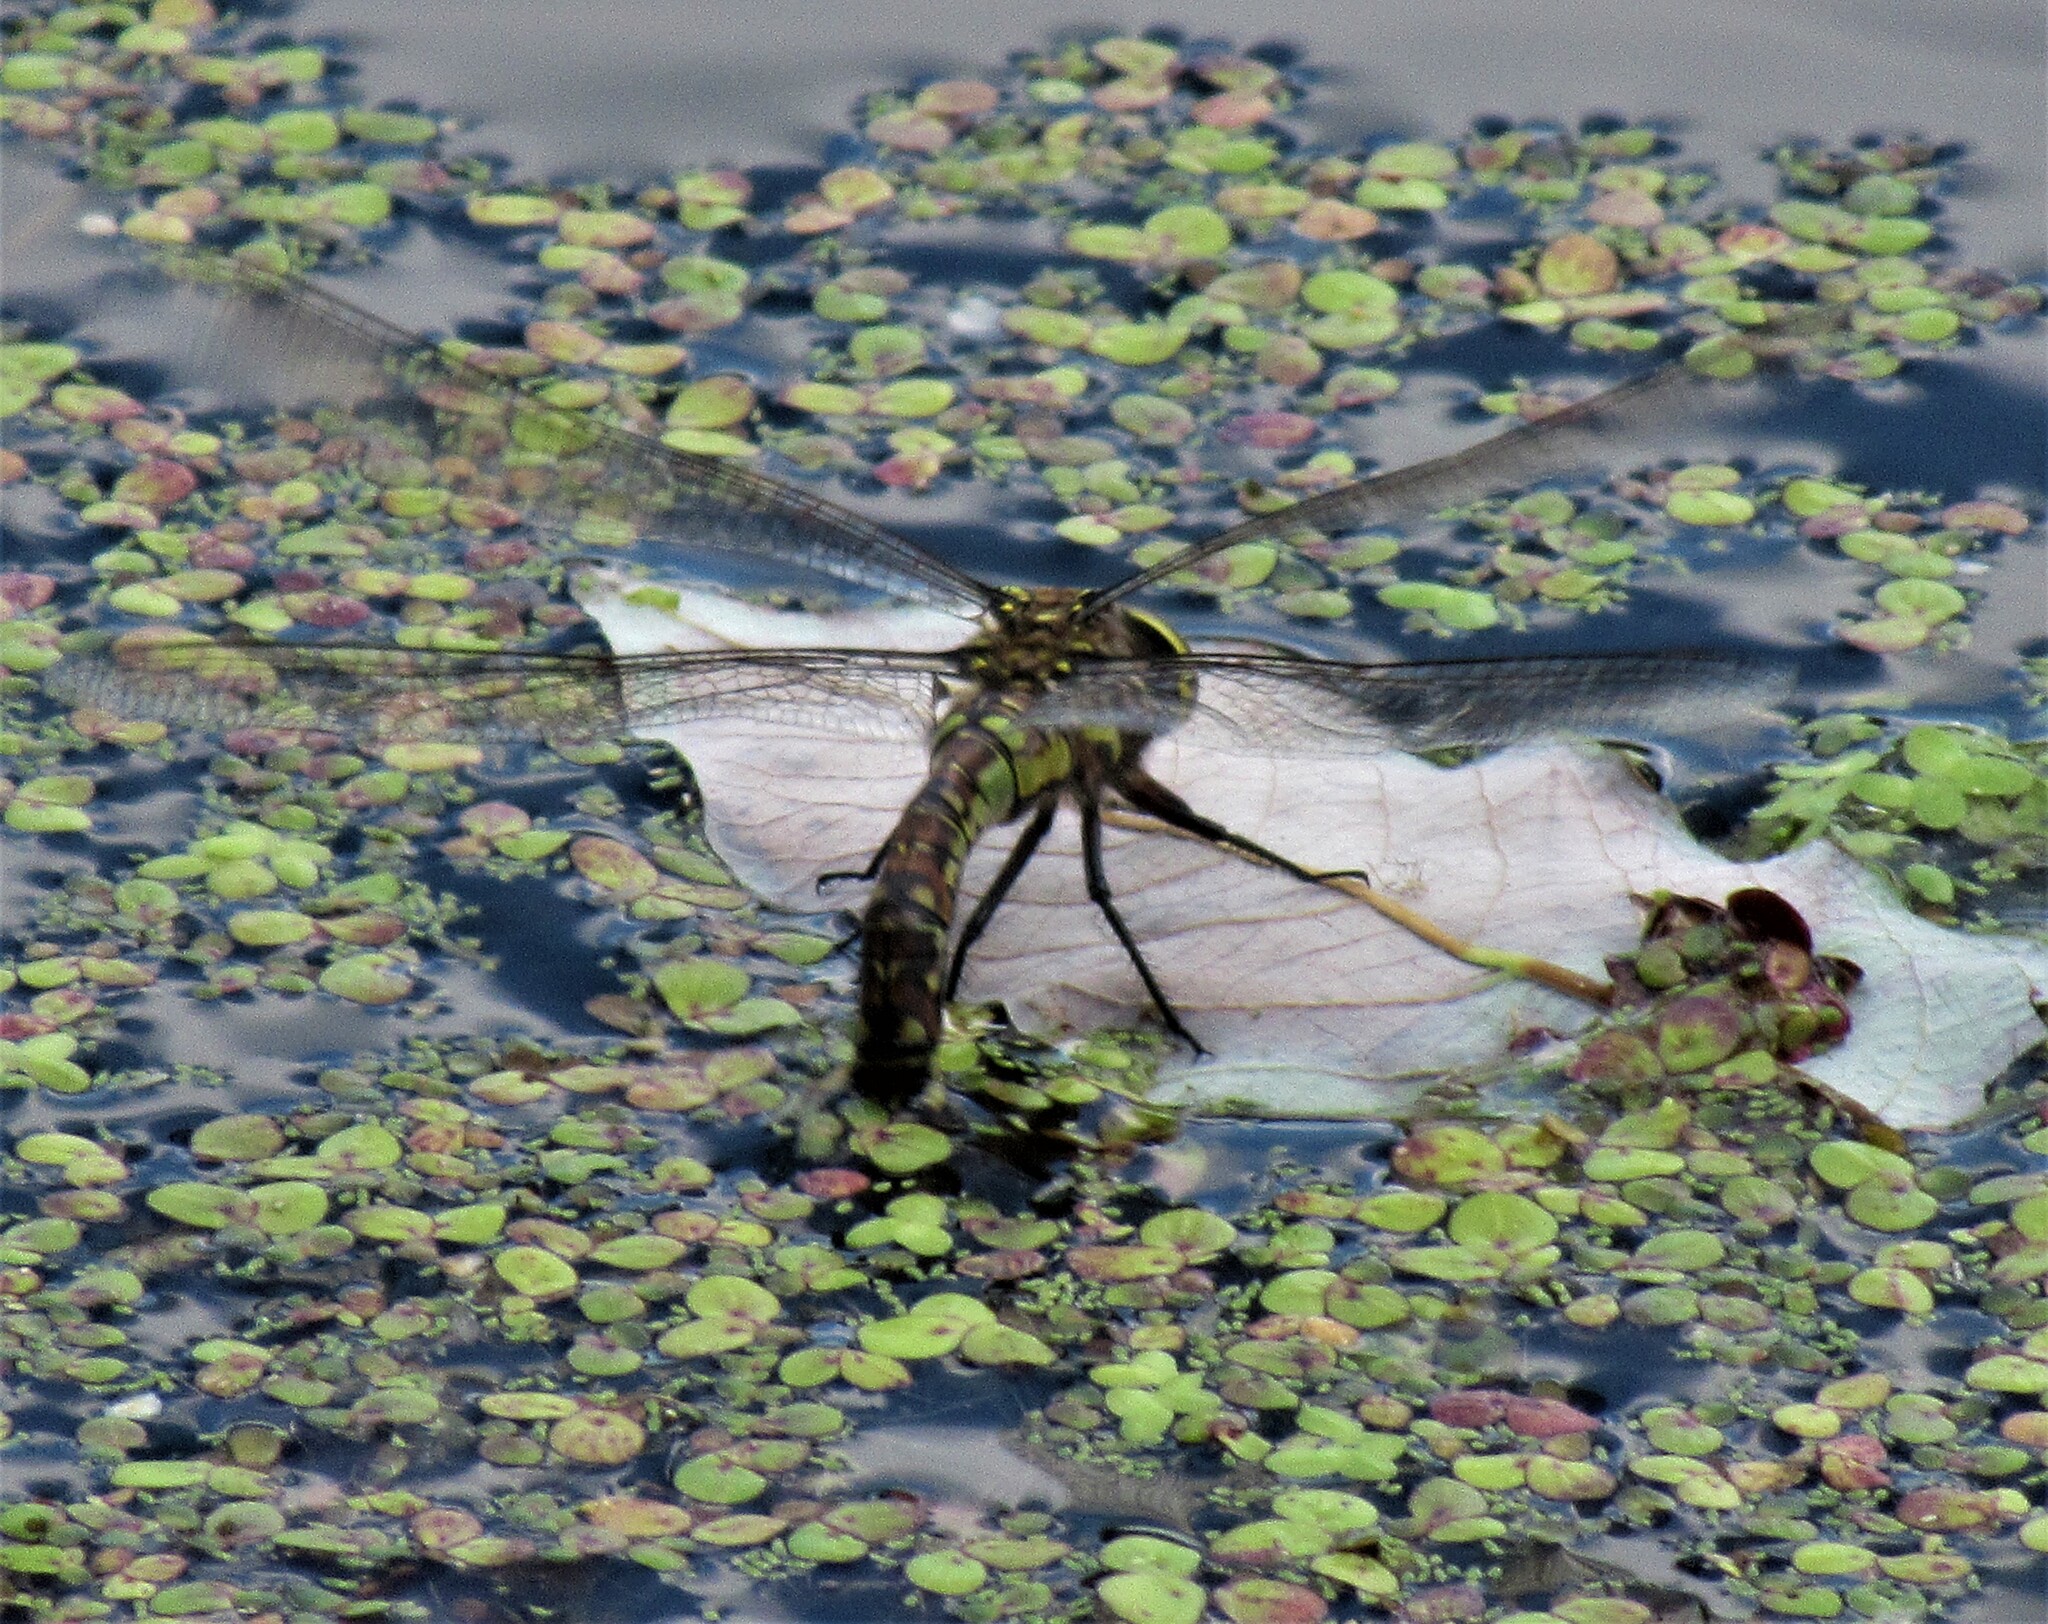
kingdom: Animalia
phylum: Arthropoda
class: Insecta
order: Odonata
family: Aeshnidae
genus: Rhionaeschna
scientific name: Rhionaeschna californica
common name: California darner
